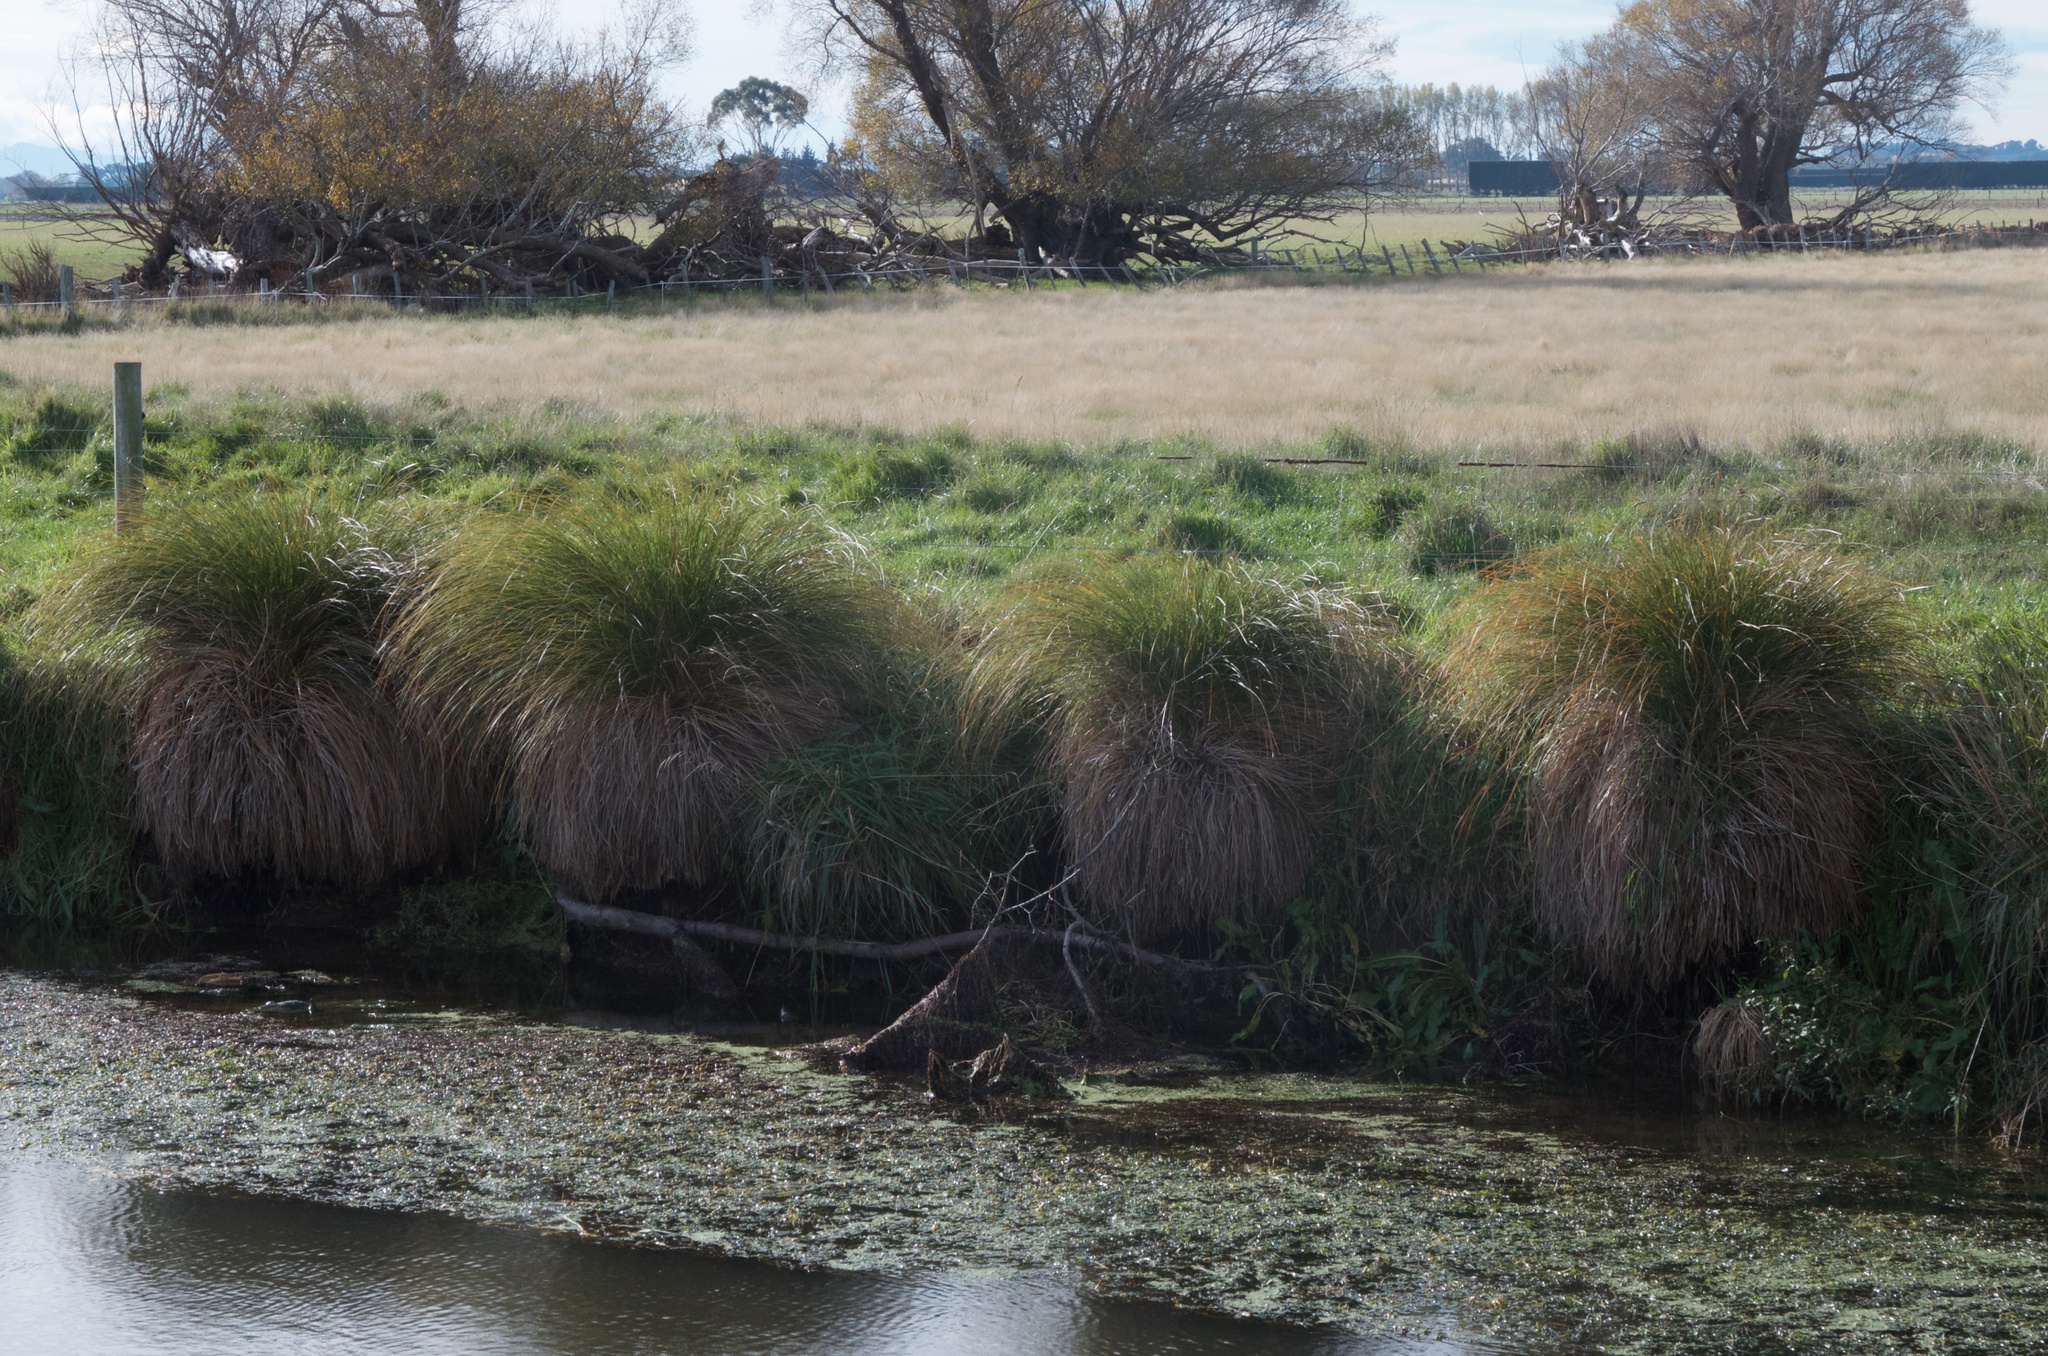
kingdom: Plantae
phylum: Tracheophyta
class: Liliopsida
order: Poales
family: Cyperaceae
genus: Carex
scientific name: Carex secta
